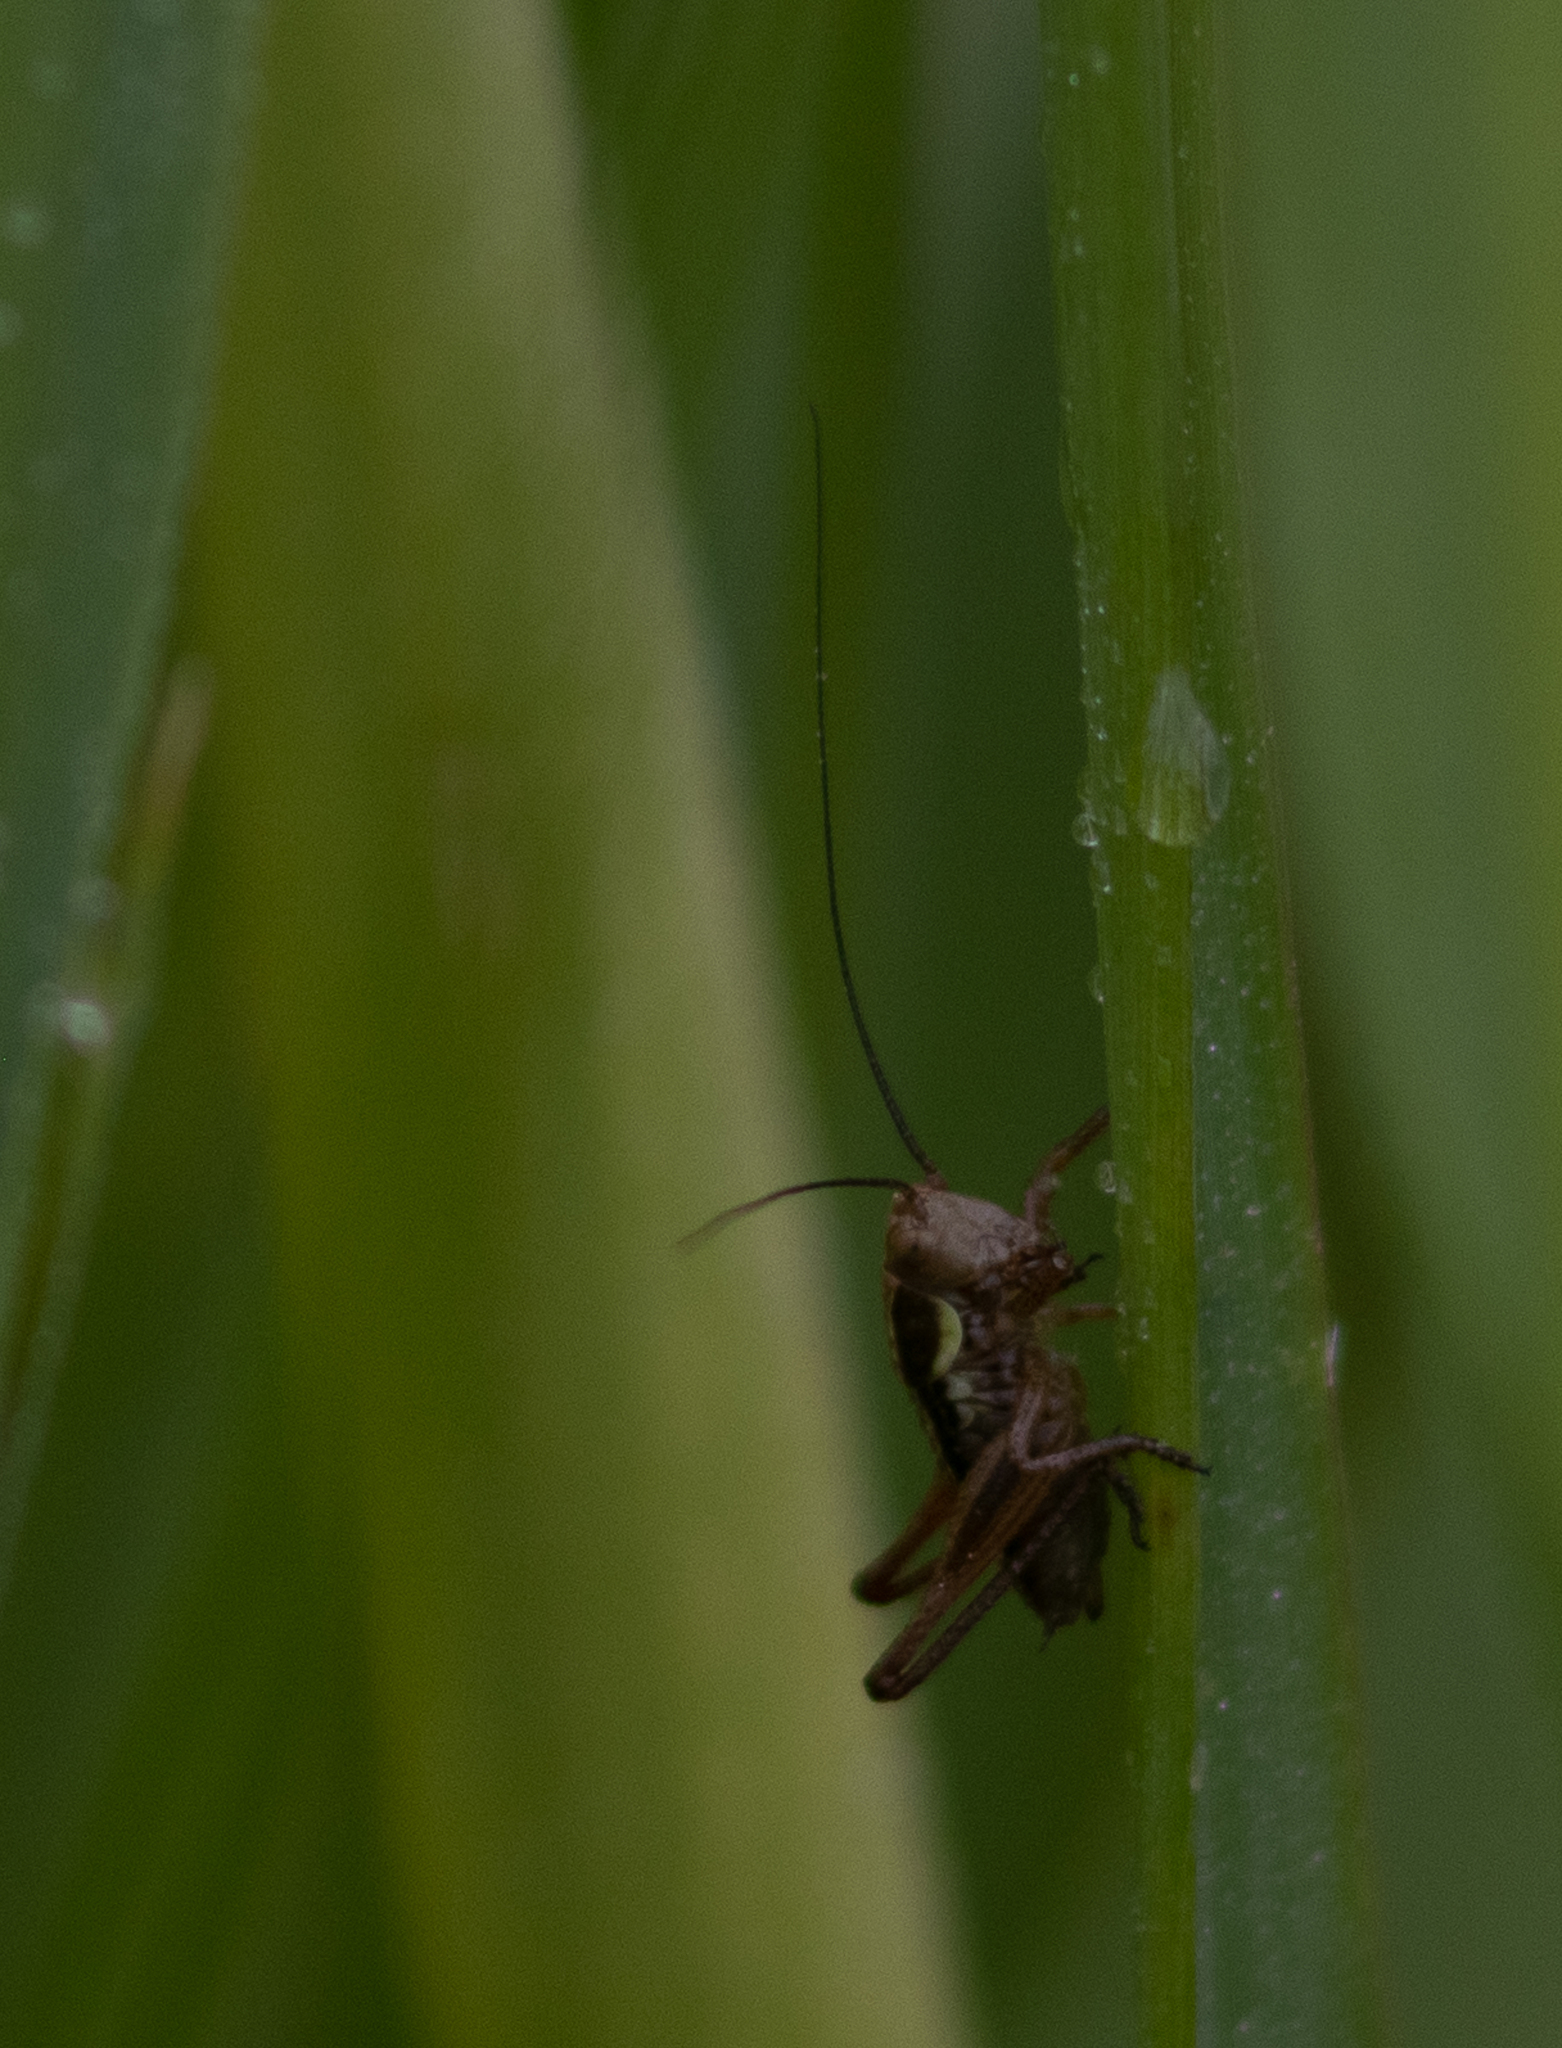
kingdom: Animalia
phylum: Arthropoda
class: Insecta
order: Orthoptera
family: Tettigoniidae
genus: Roeseliana
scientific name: Roeseliana roeselii
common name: Roesel's bush cricket
